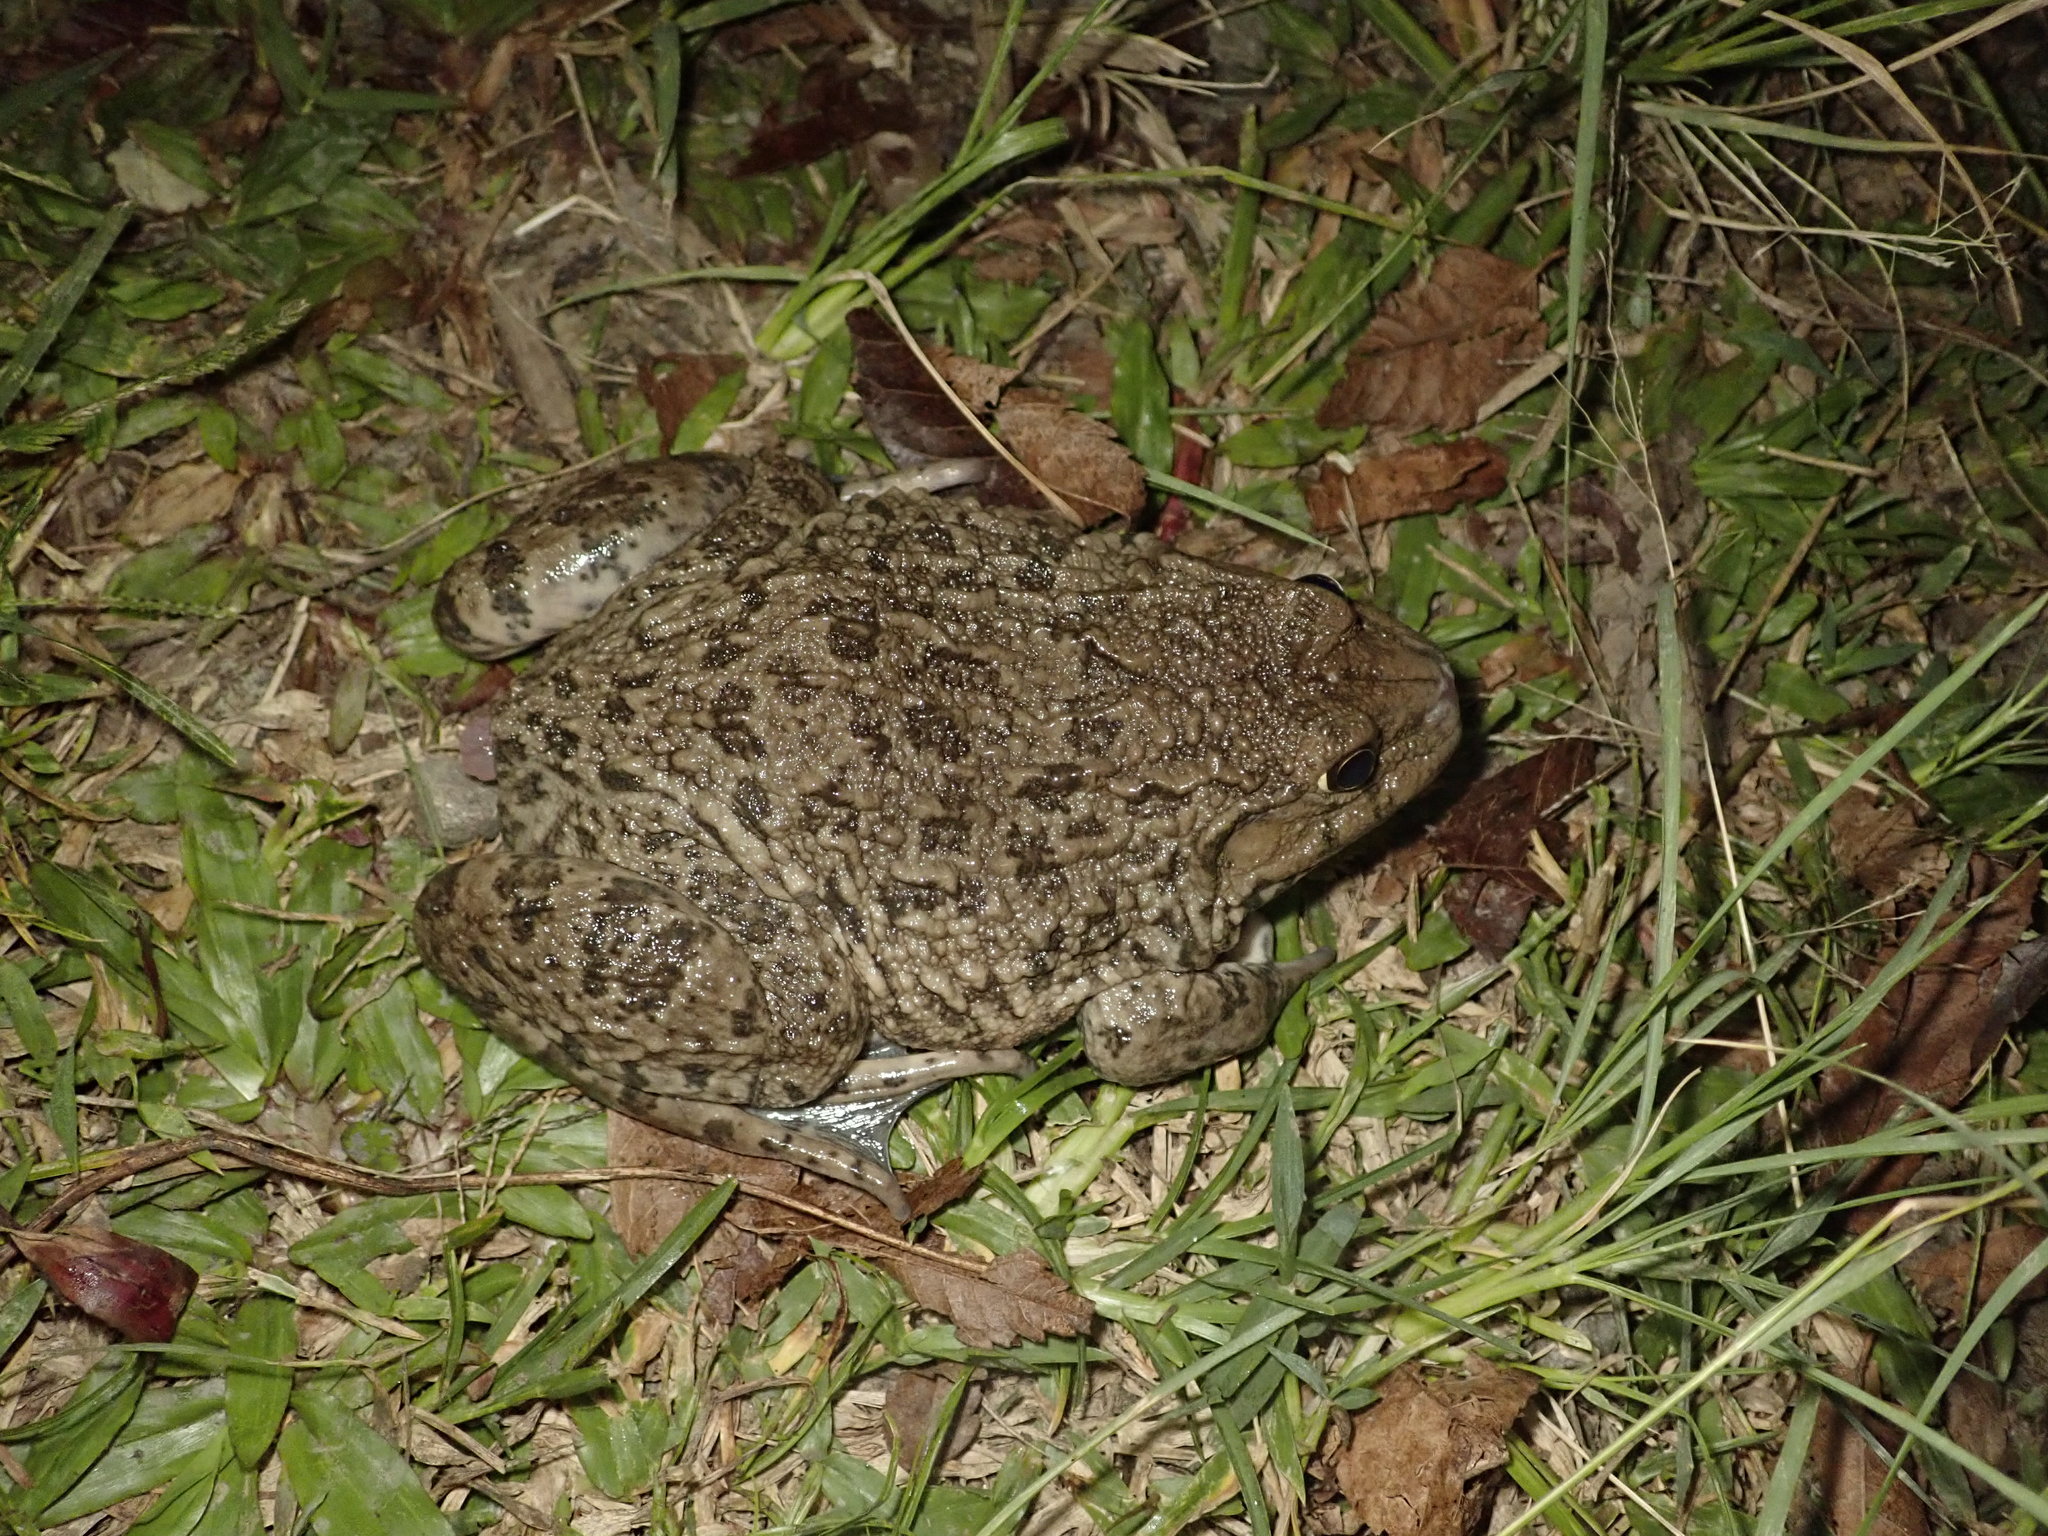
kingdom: Animalia
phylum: Chordata
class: Amphibia
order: Anura
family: Dicroglossidae
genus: Hoplobatrachus
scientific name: Hoplobatrachus rugulosus
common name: Chinese edible frog
